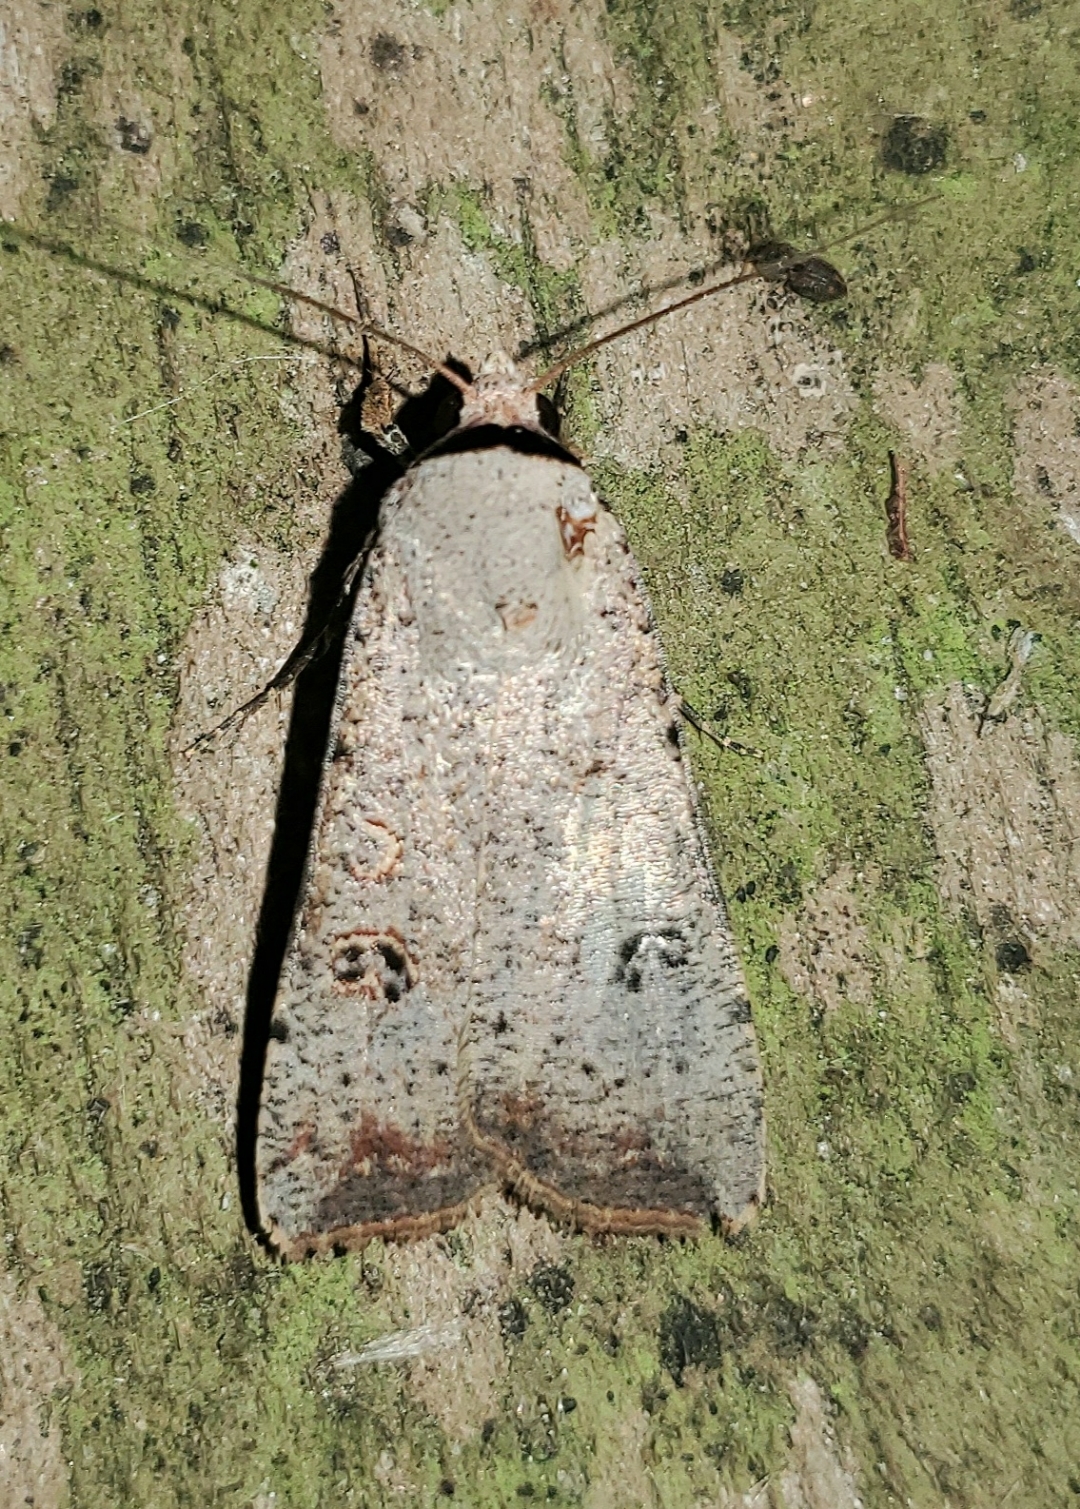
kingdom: Animalia
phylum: Arthropoda
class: Insecta
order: Lepidoptera
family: Noctuidae
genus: Anicla
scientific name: Anicla infecta
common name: Green cutworm
